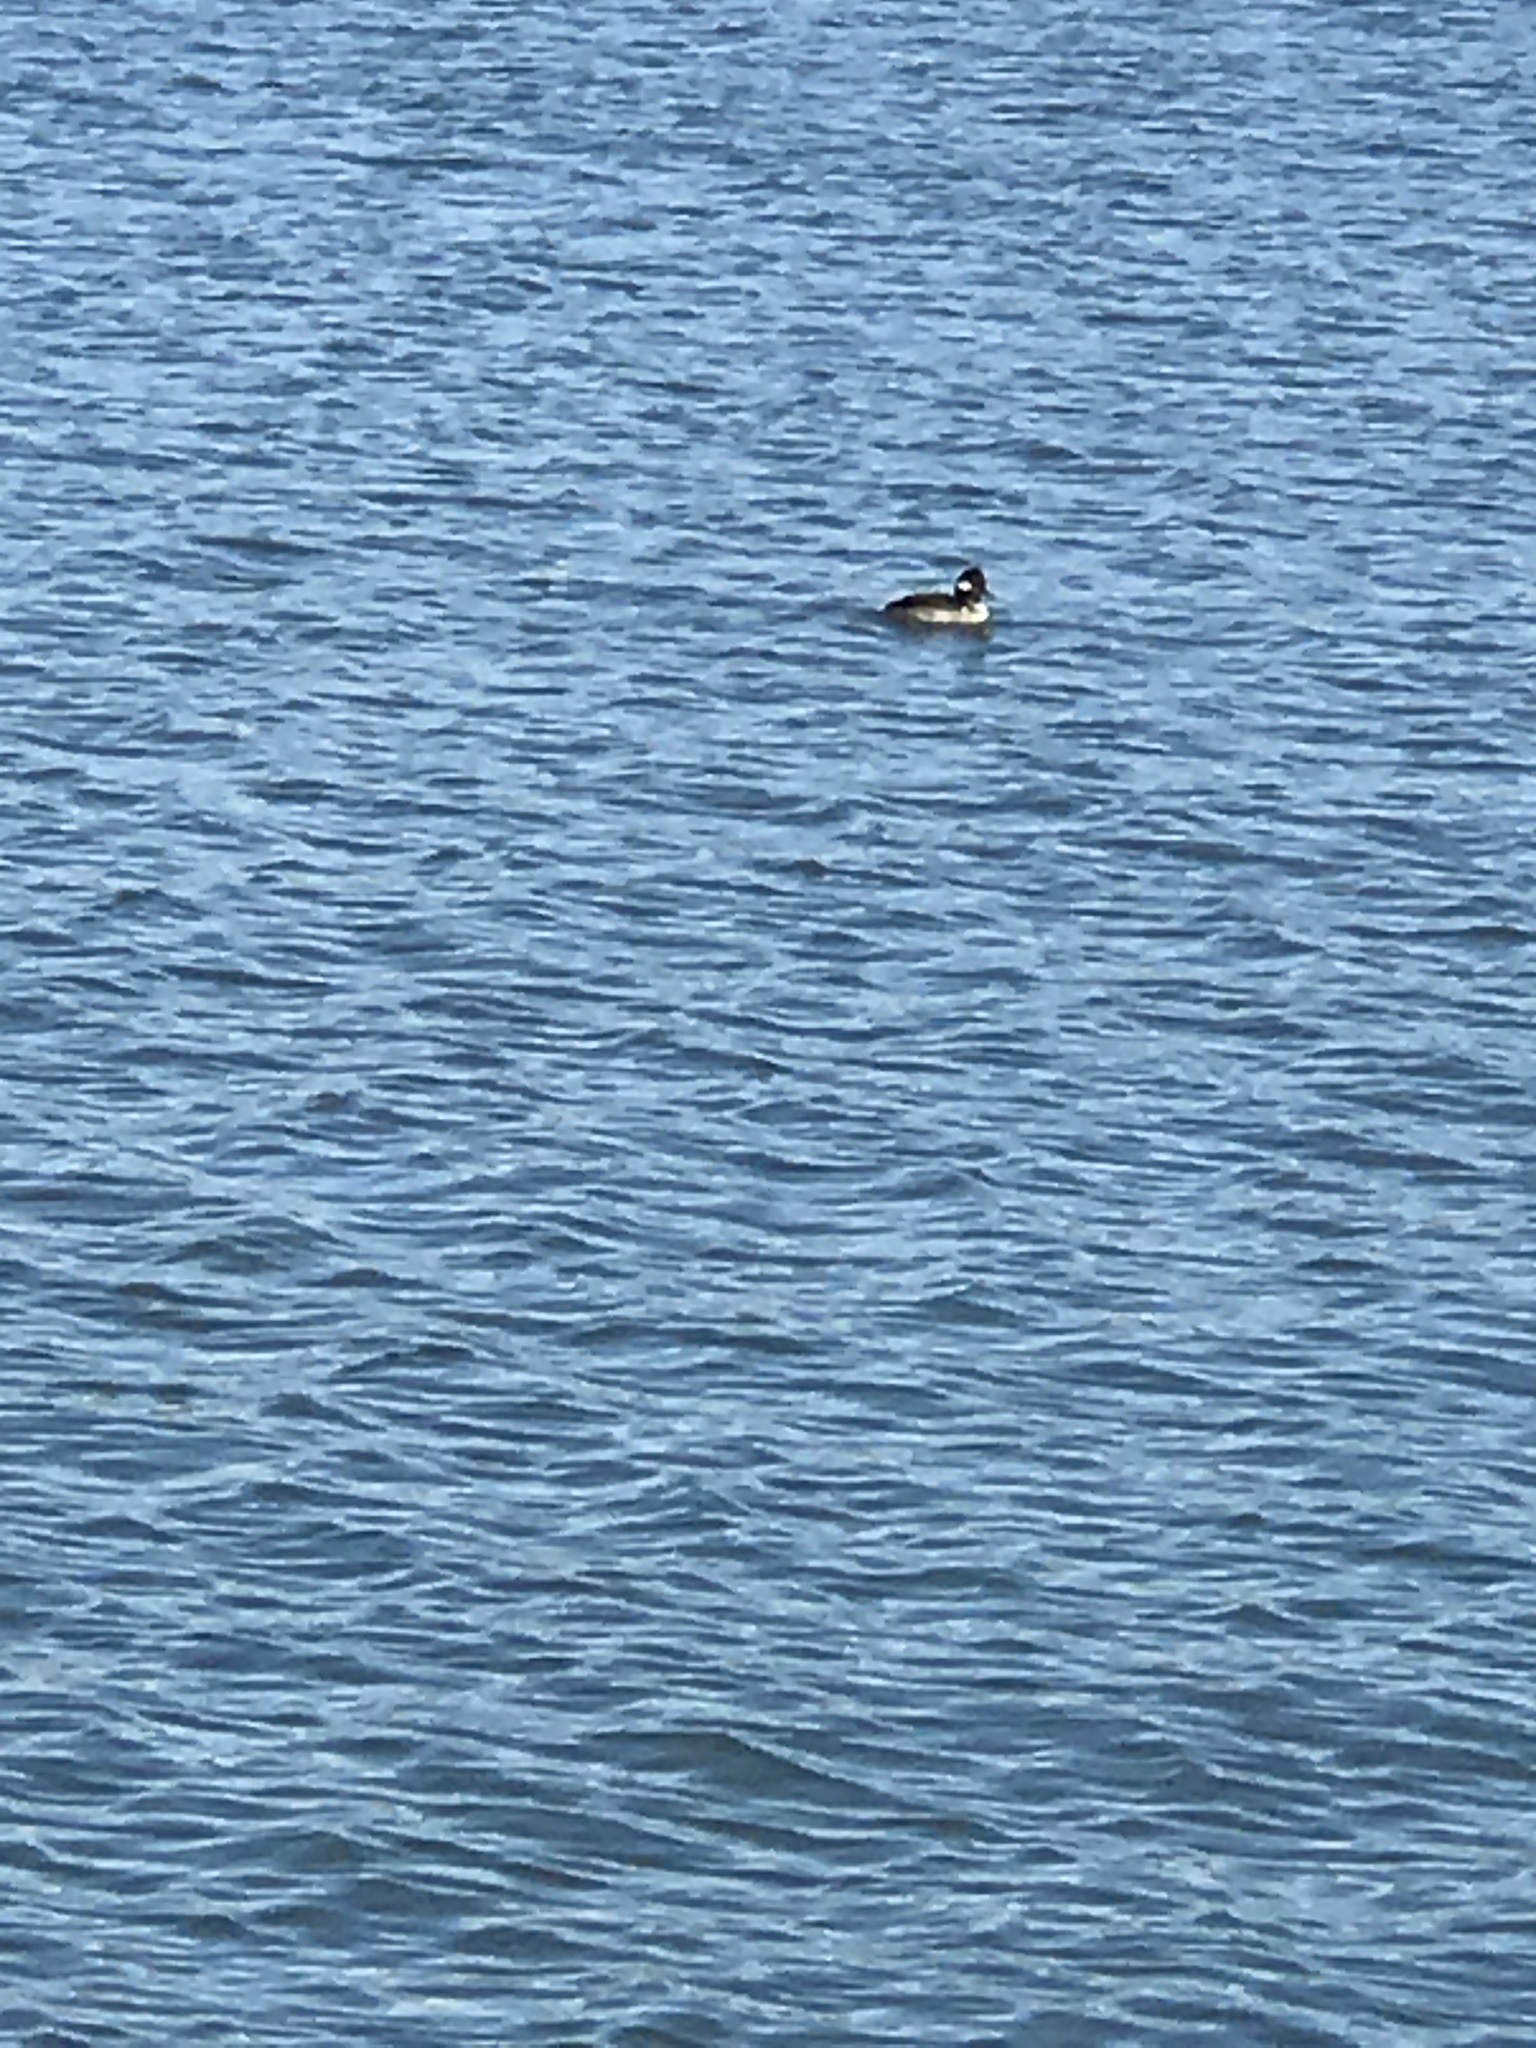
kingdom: Animalia
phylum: Chordata
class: Aves
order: Anseriformes
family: Anatidae
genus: Bucephala
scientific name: Bucephala albeola
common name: Bufflehead
